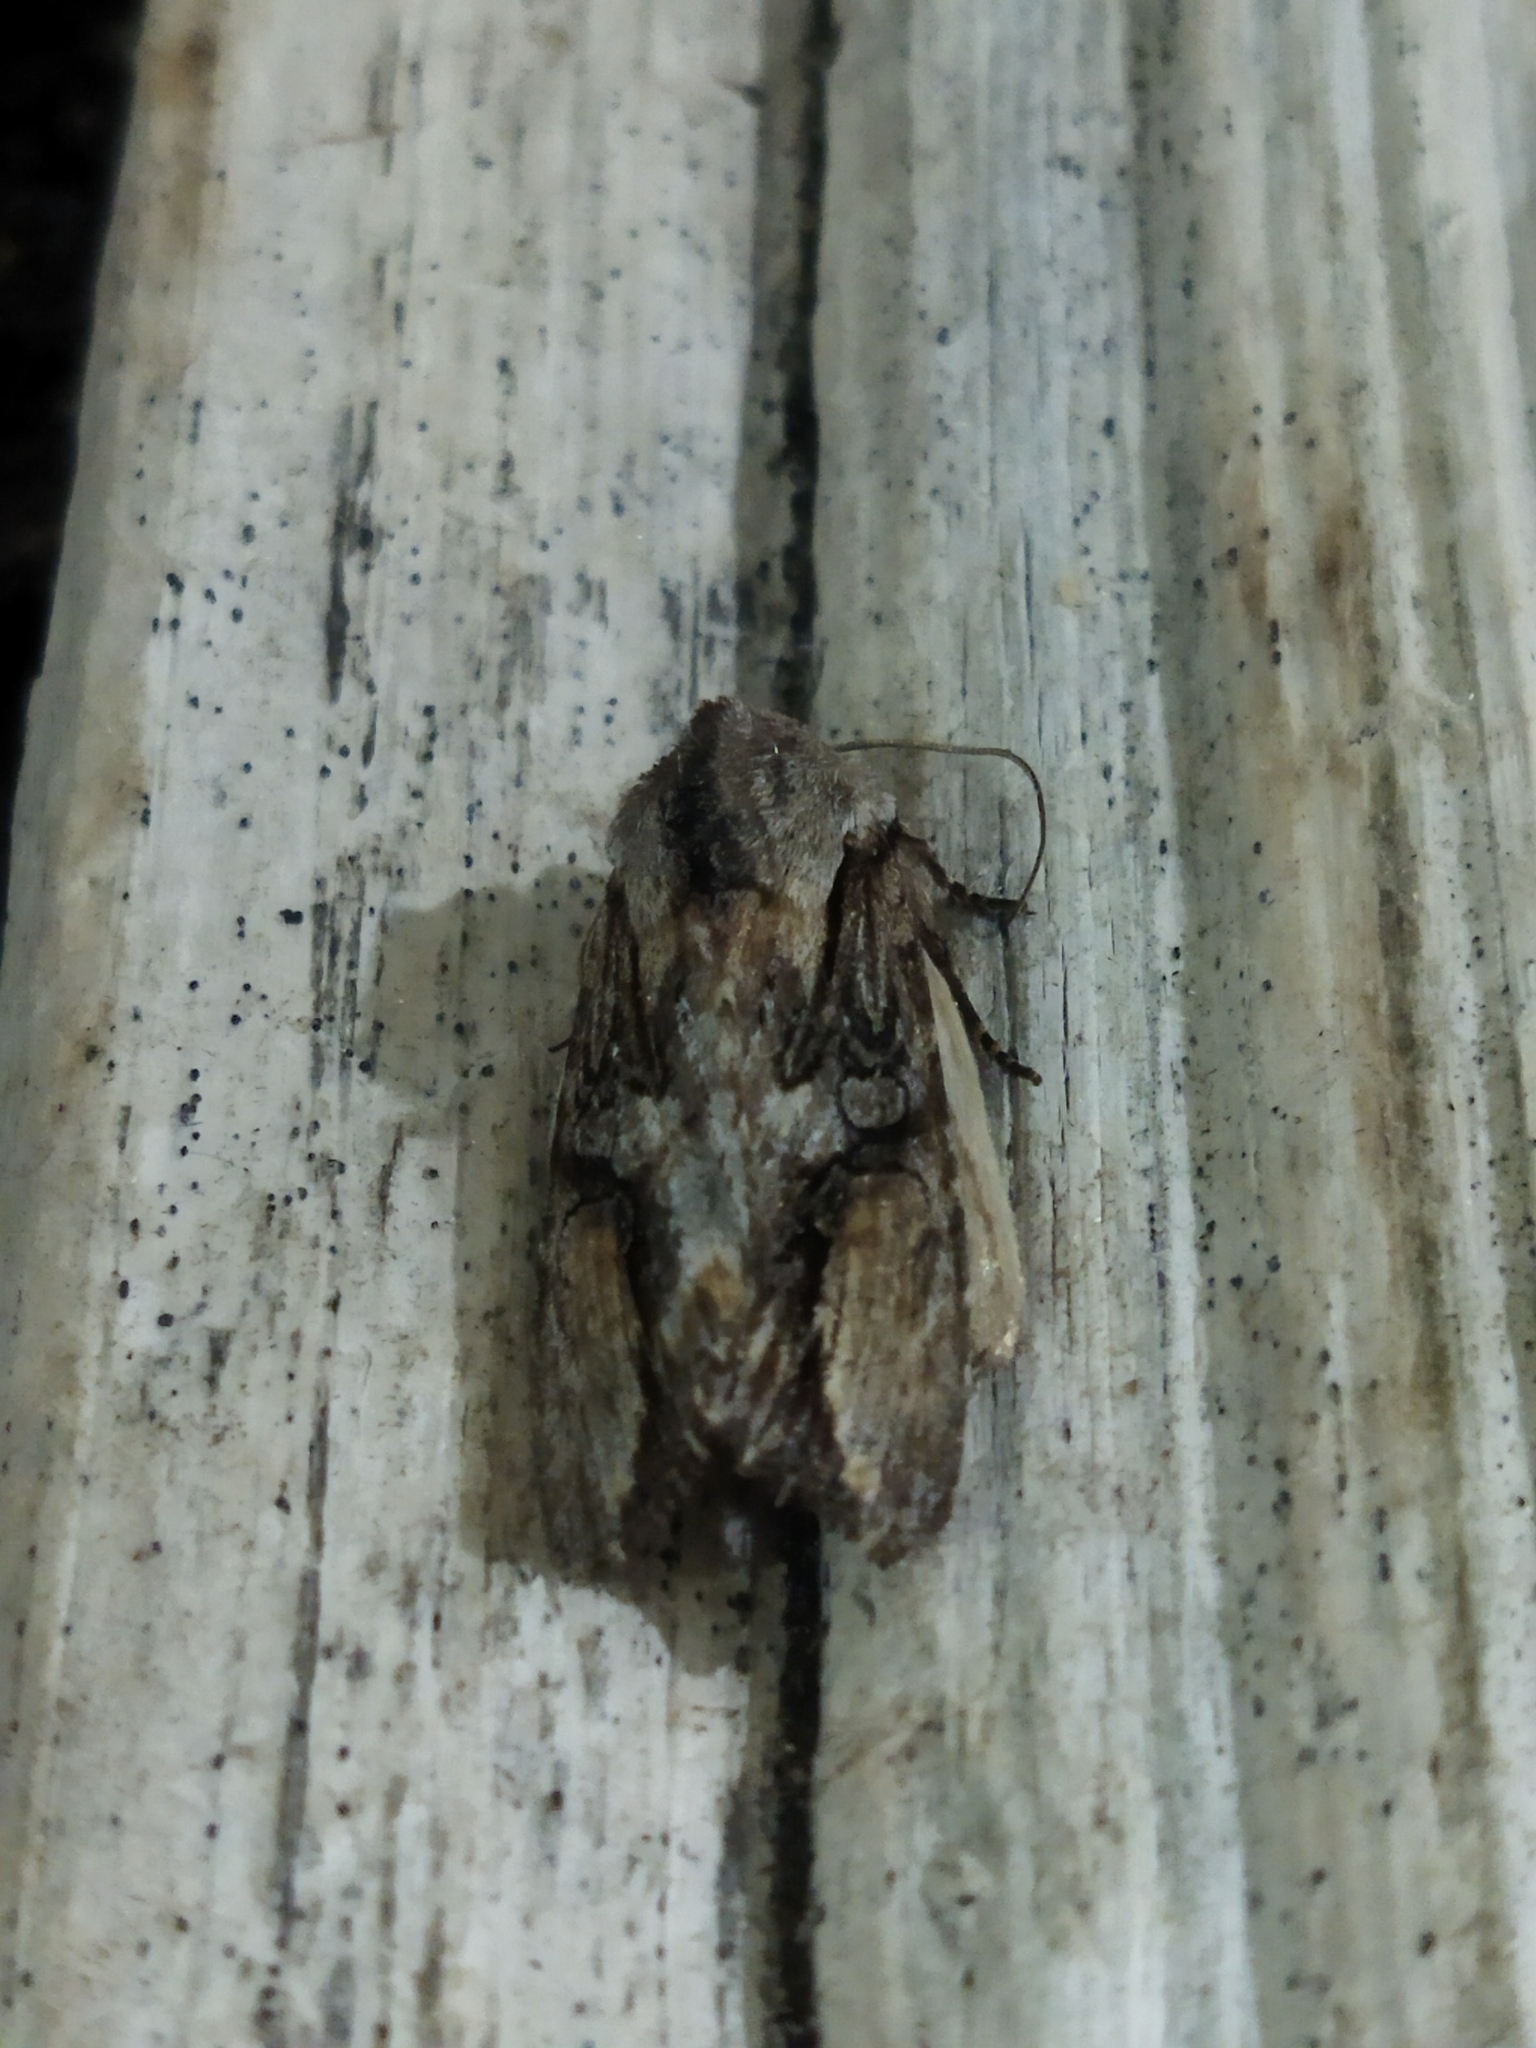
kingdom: Animalia
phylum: Arthropoda
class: Insecta
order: Lepidoptera
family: Noctuidae
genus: Egira
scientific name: Egira
